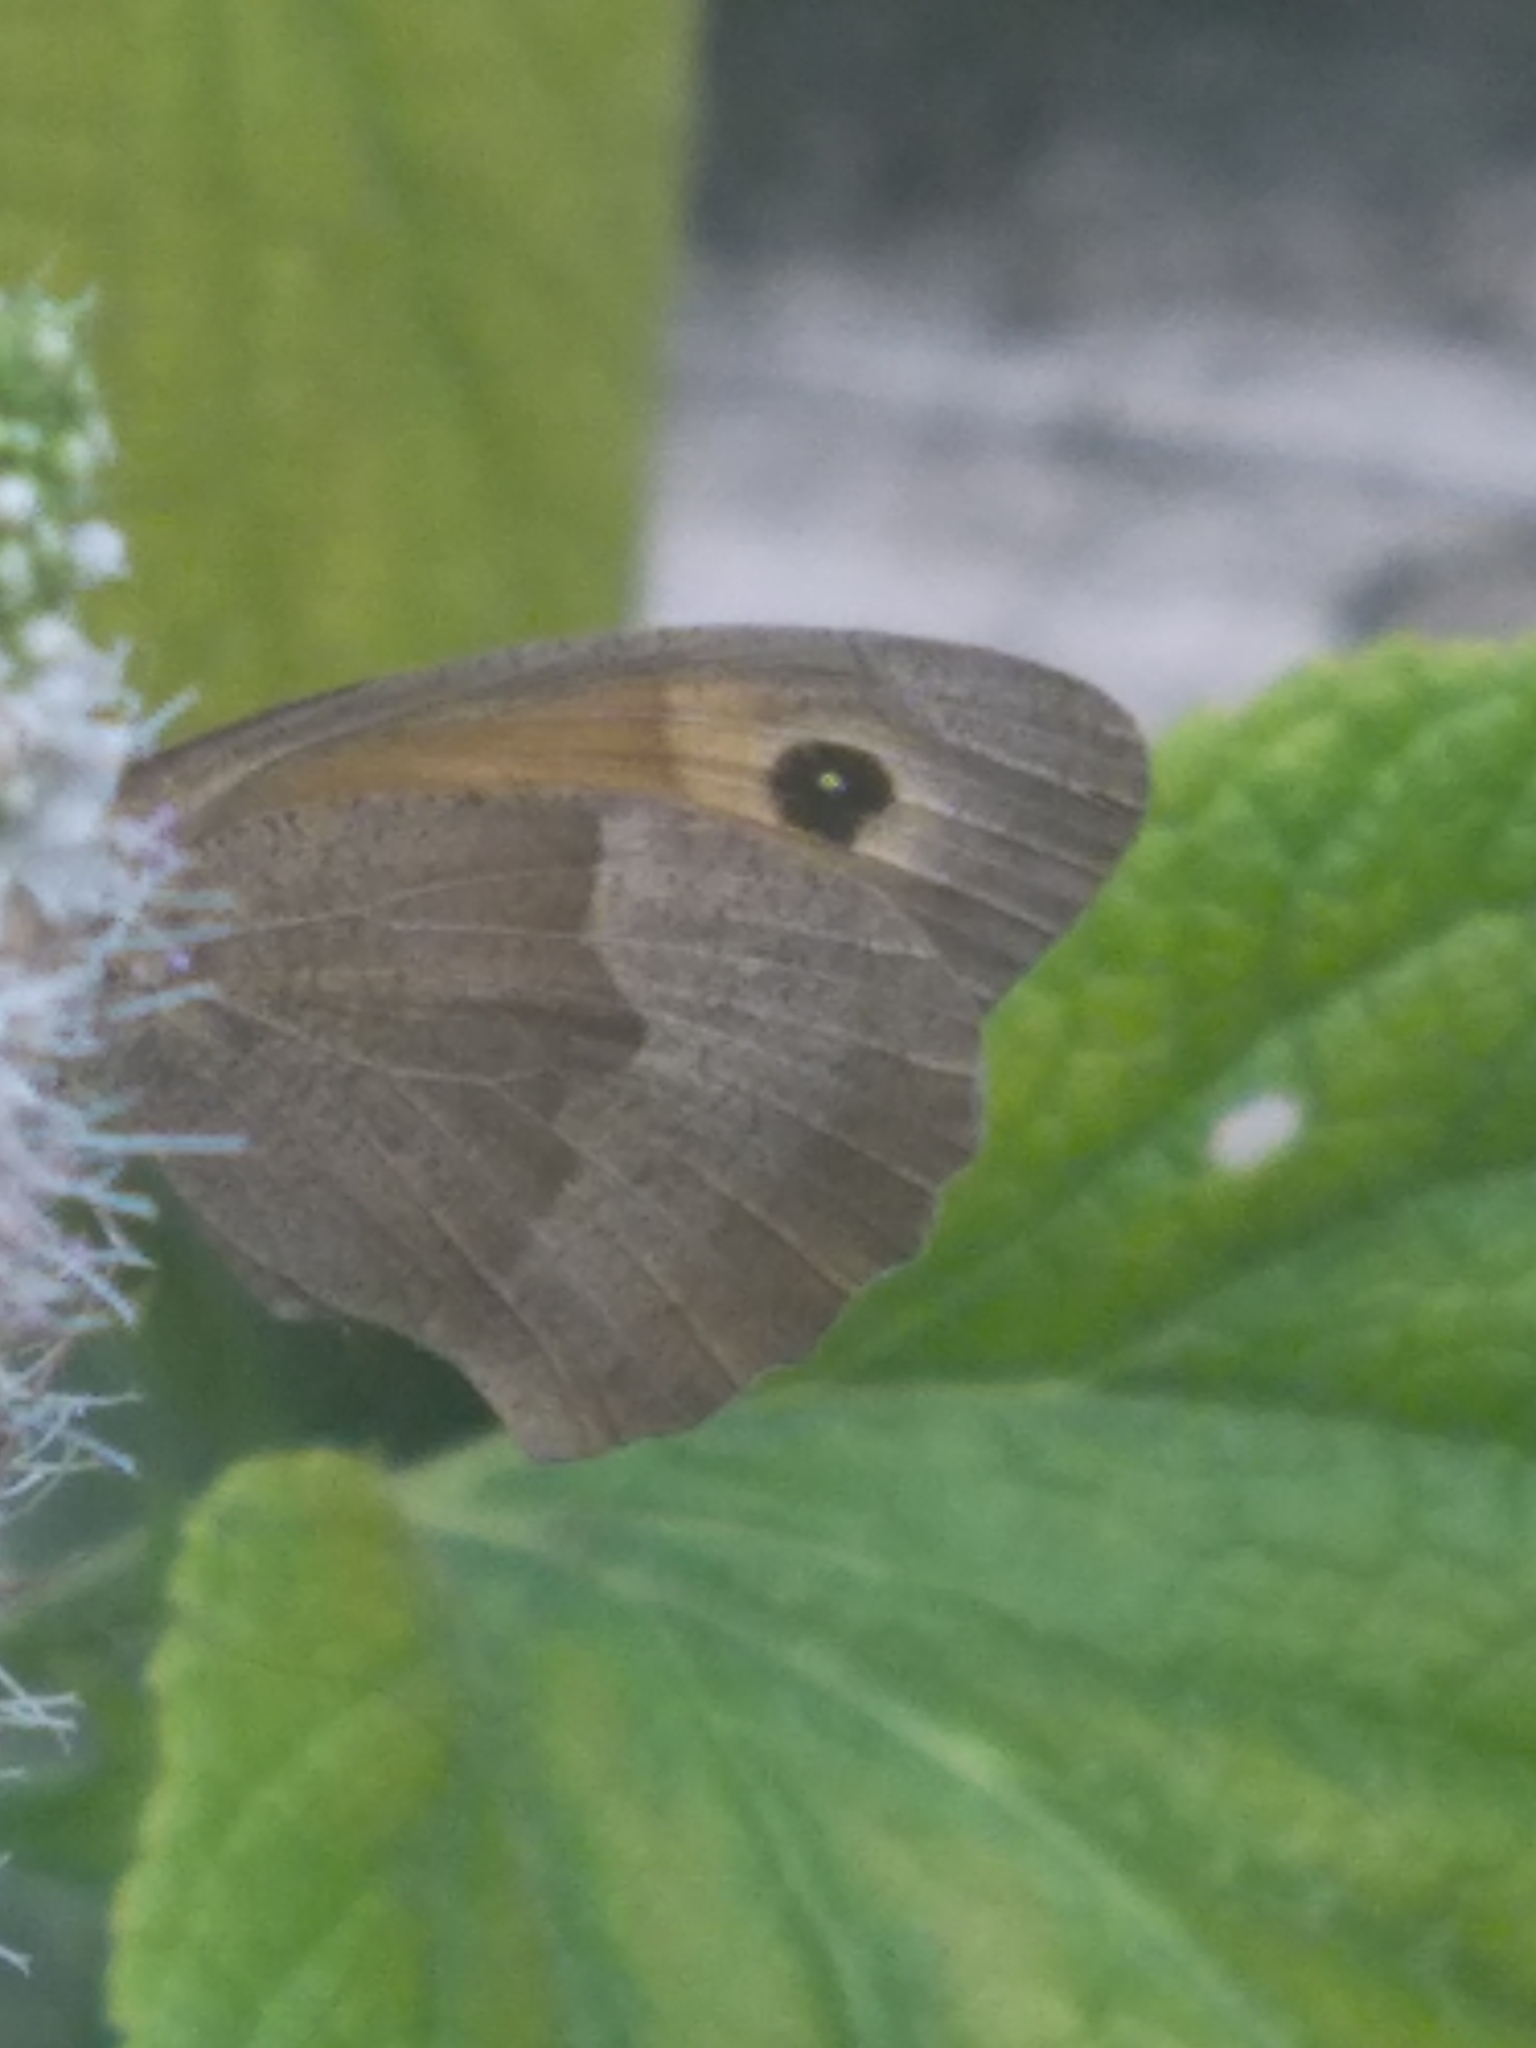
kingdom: Animalia
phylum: Arthropoda
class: Insecta
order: Lepidoptera
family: Nymphalidae
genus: Maniola
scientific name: Maniola jurtina
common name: Meadow brown
